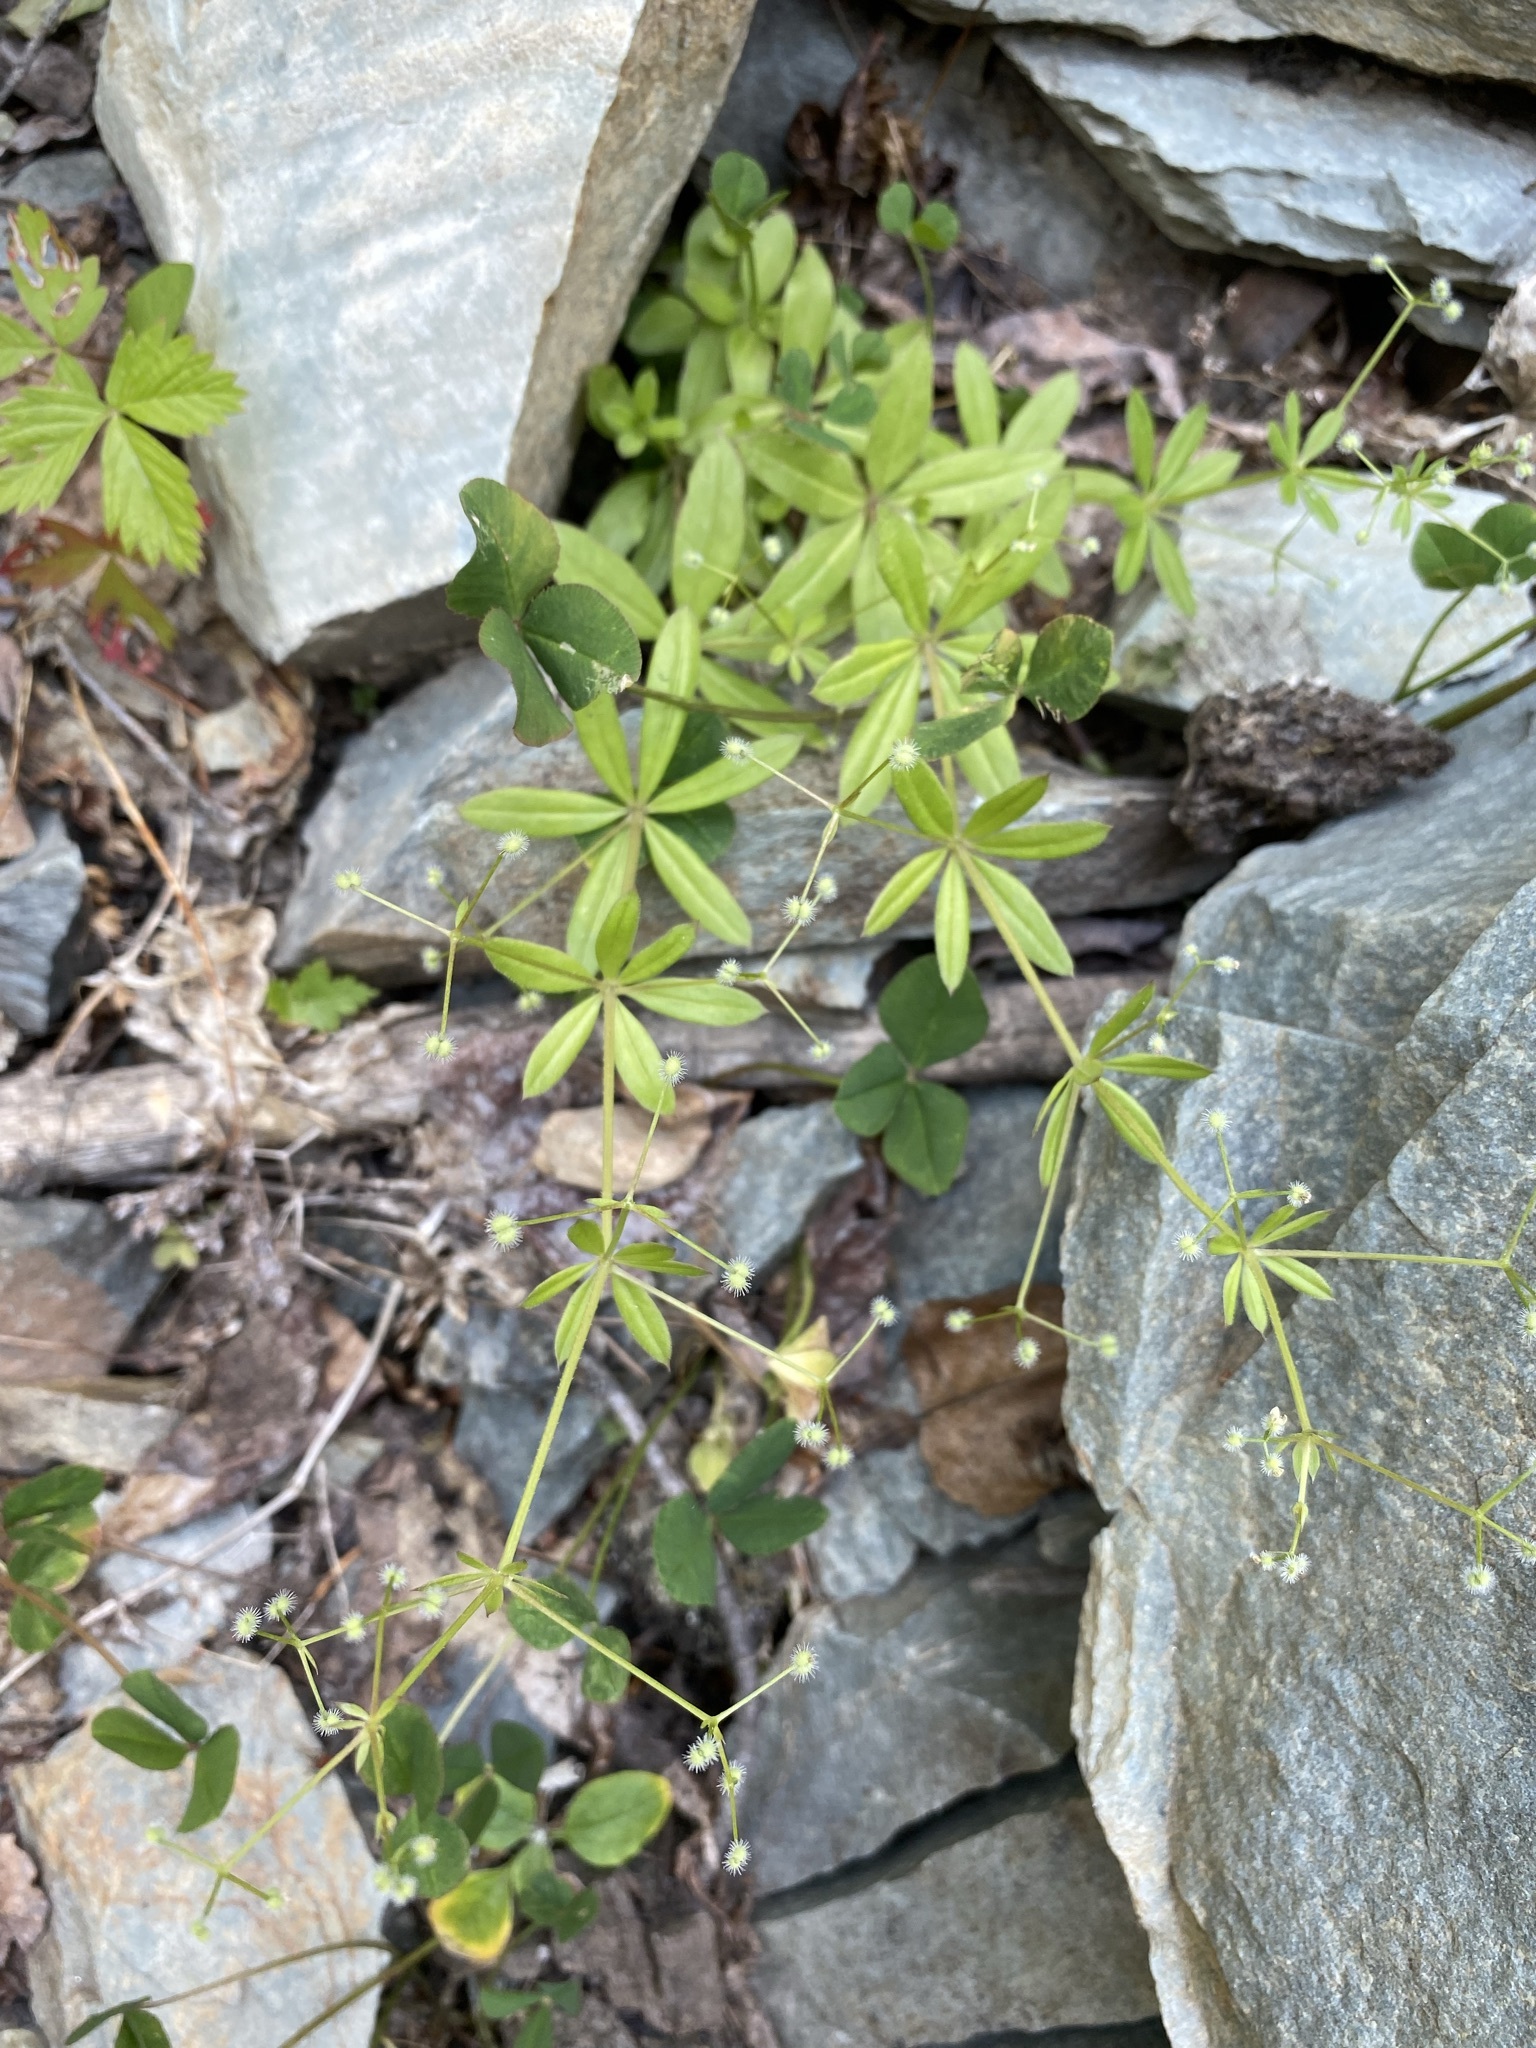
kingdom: Plantae
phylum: Tracheophyta
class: Magnoliopsida
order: Gentianales
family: Rubiaceae
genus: Galium
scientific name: Galium triflorum
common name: Fragrant bedstraw
